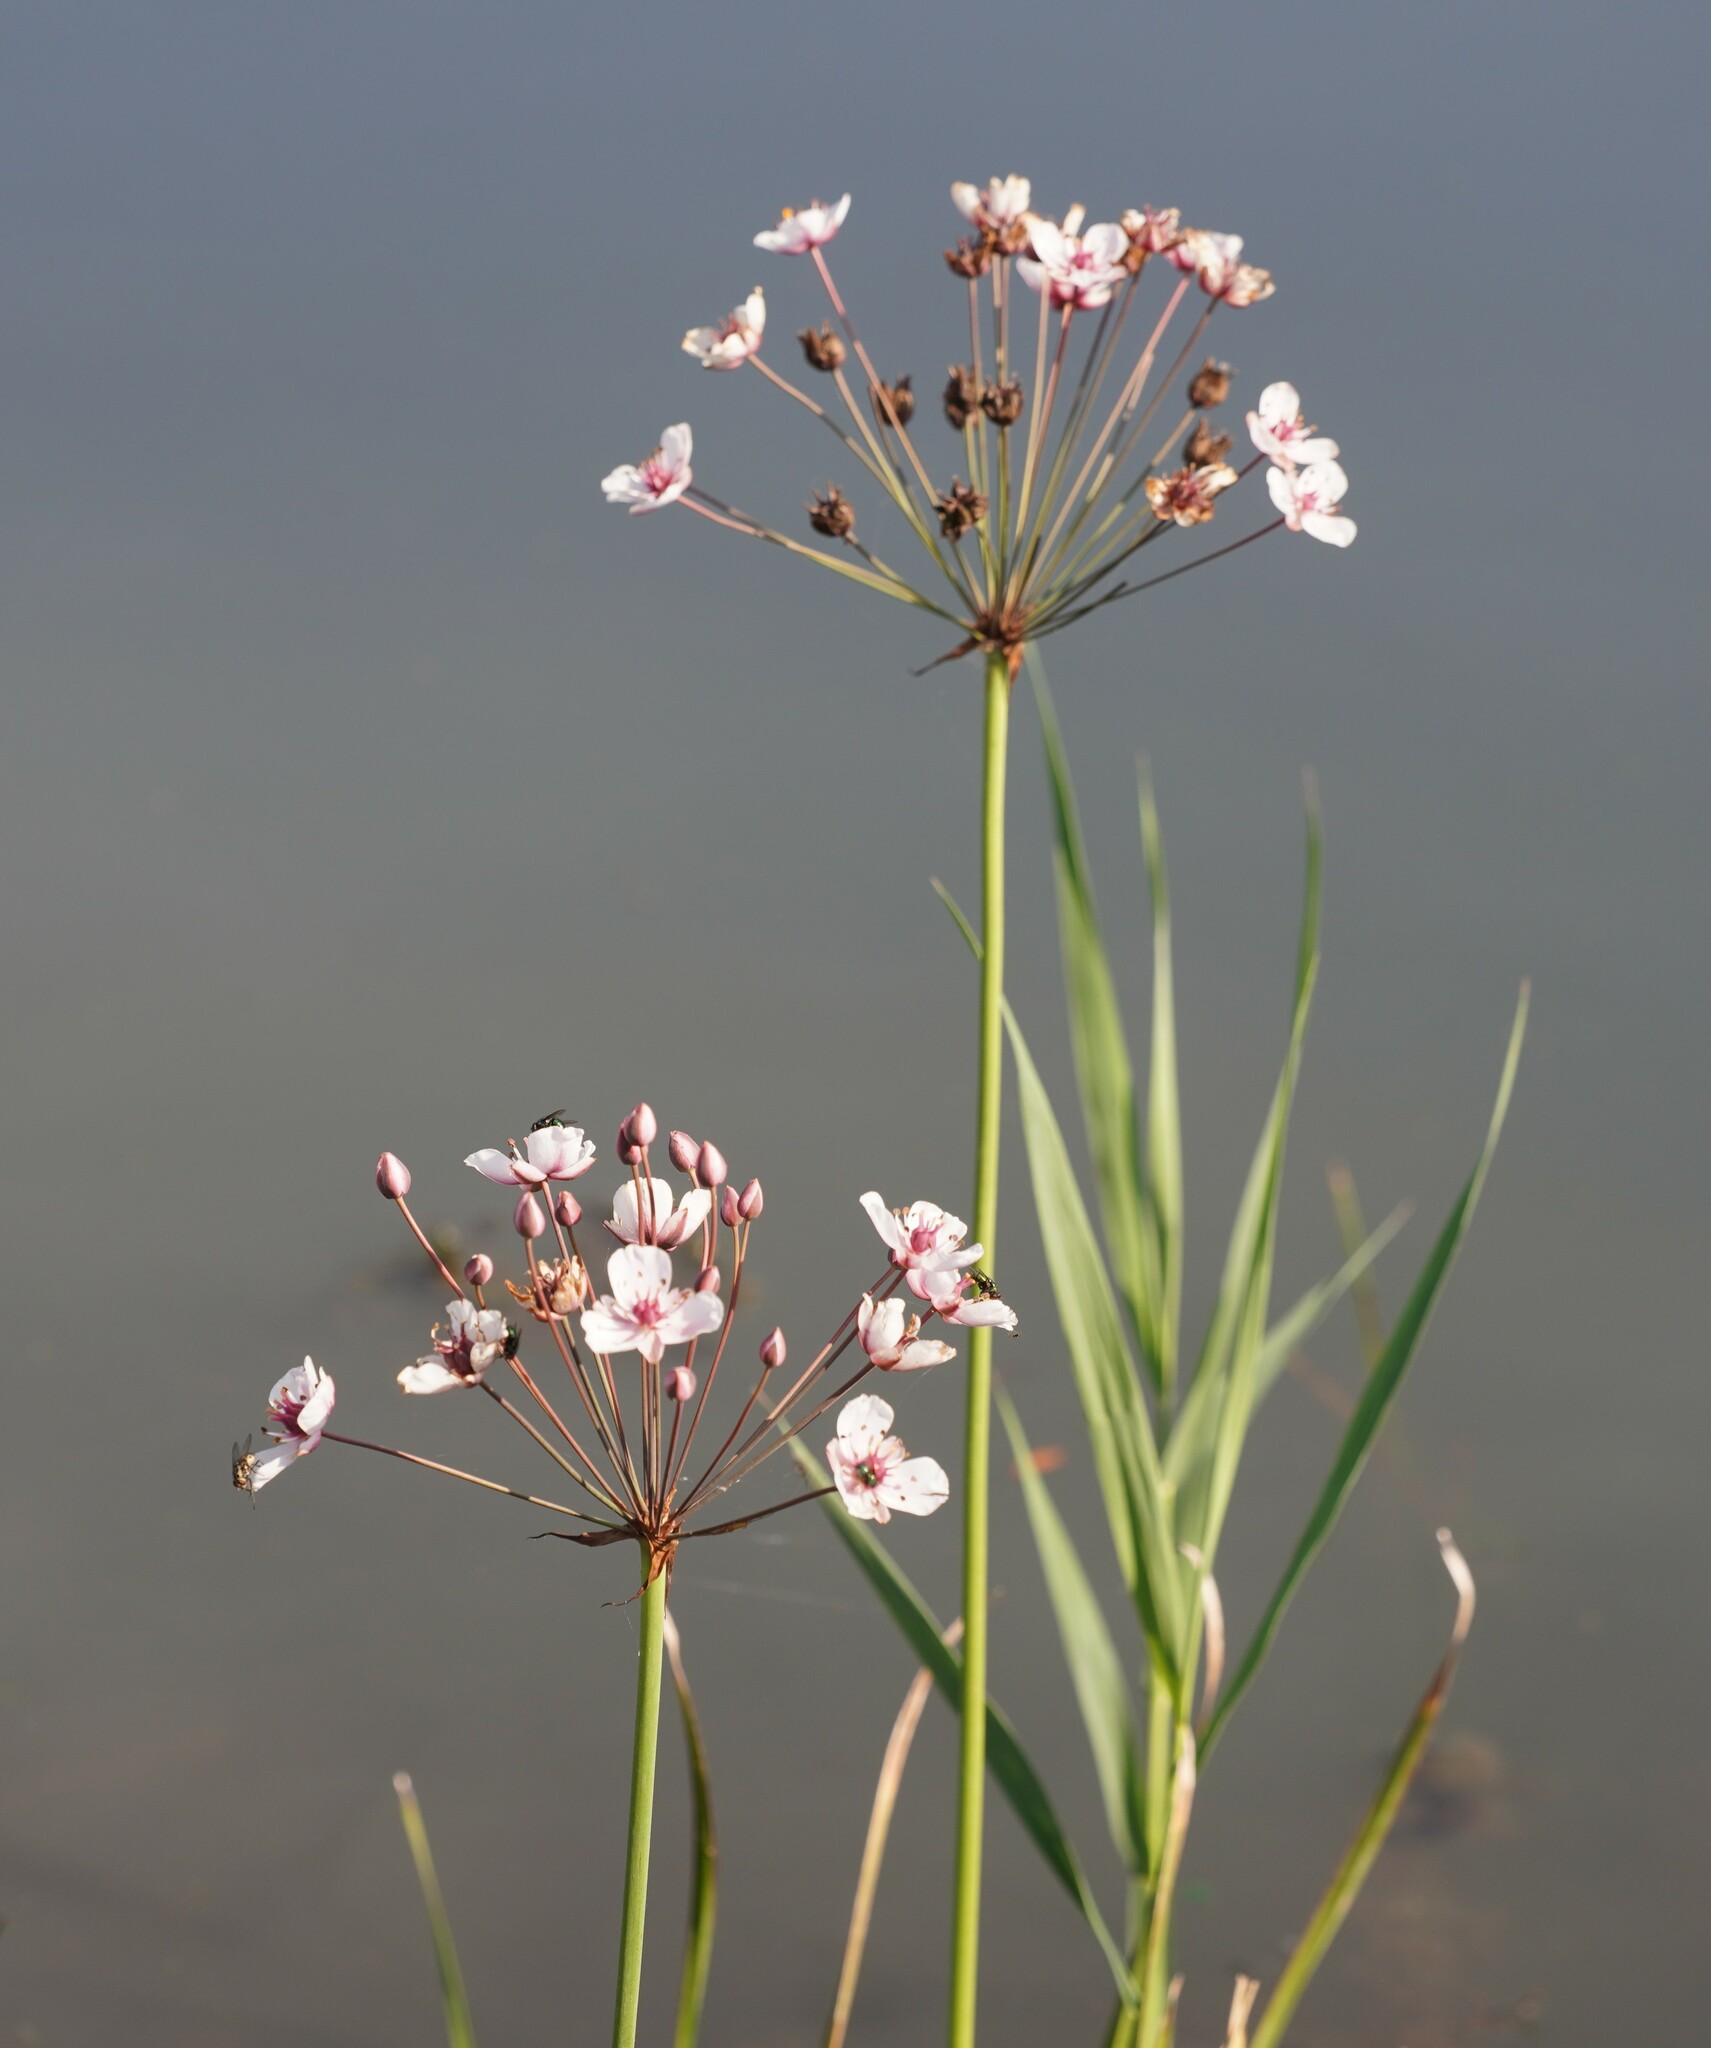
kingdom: Plantae
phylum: Tracheophyta
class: Liliopsida
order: Alismatales
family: Butomaceae
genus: Butomus
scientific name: Butomus umbellatus
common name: Flowering-rush
